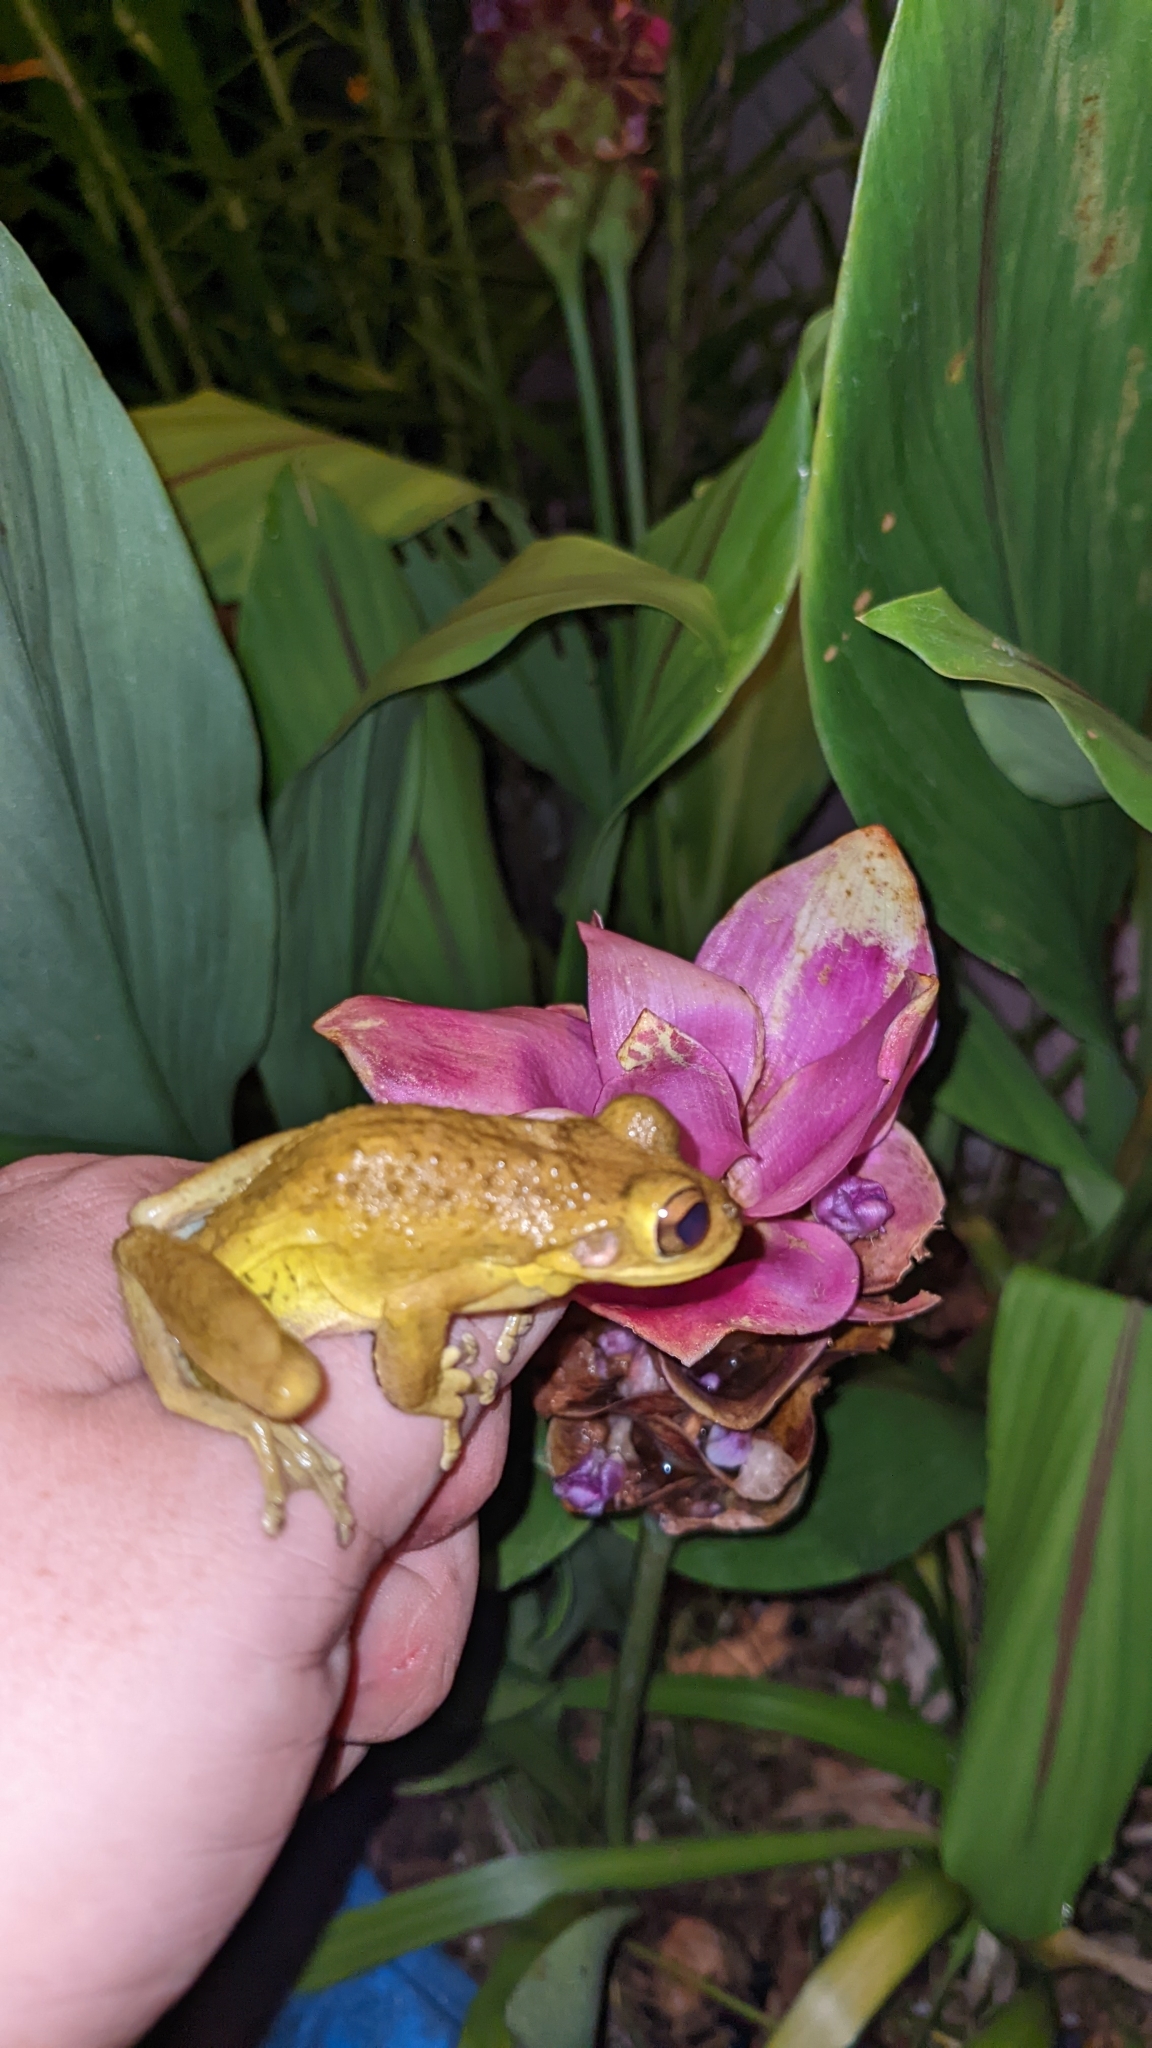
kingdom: Animalia
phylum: Chordata
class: Amphibia
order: Anura
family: Hylidae
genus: Osteopilus
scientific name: Osteopilus septentrionalis
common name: Cuban treefrog
